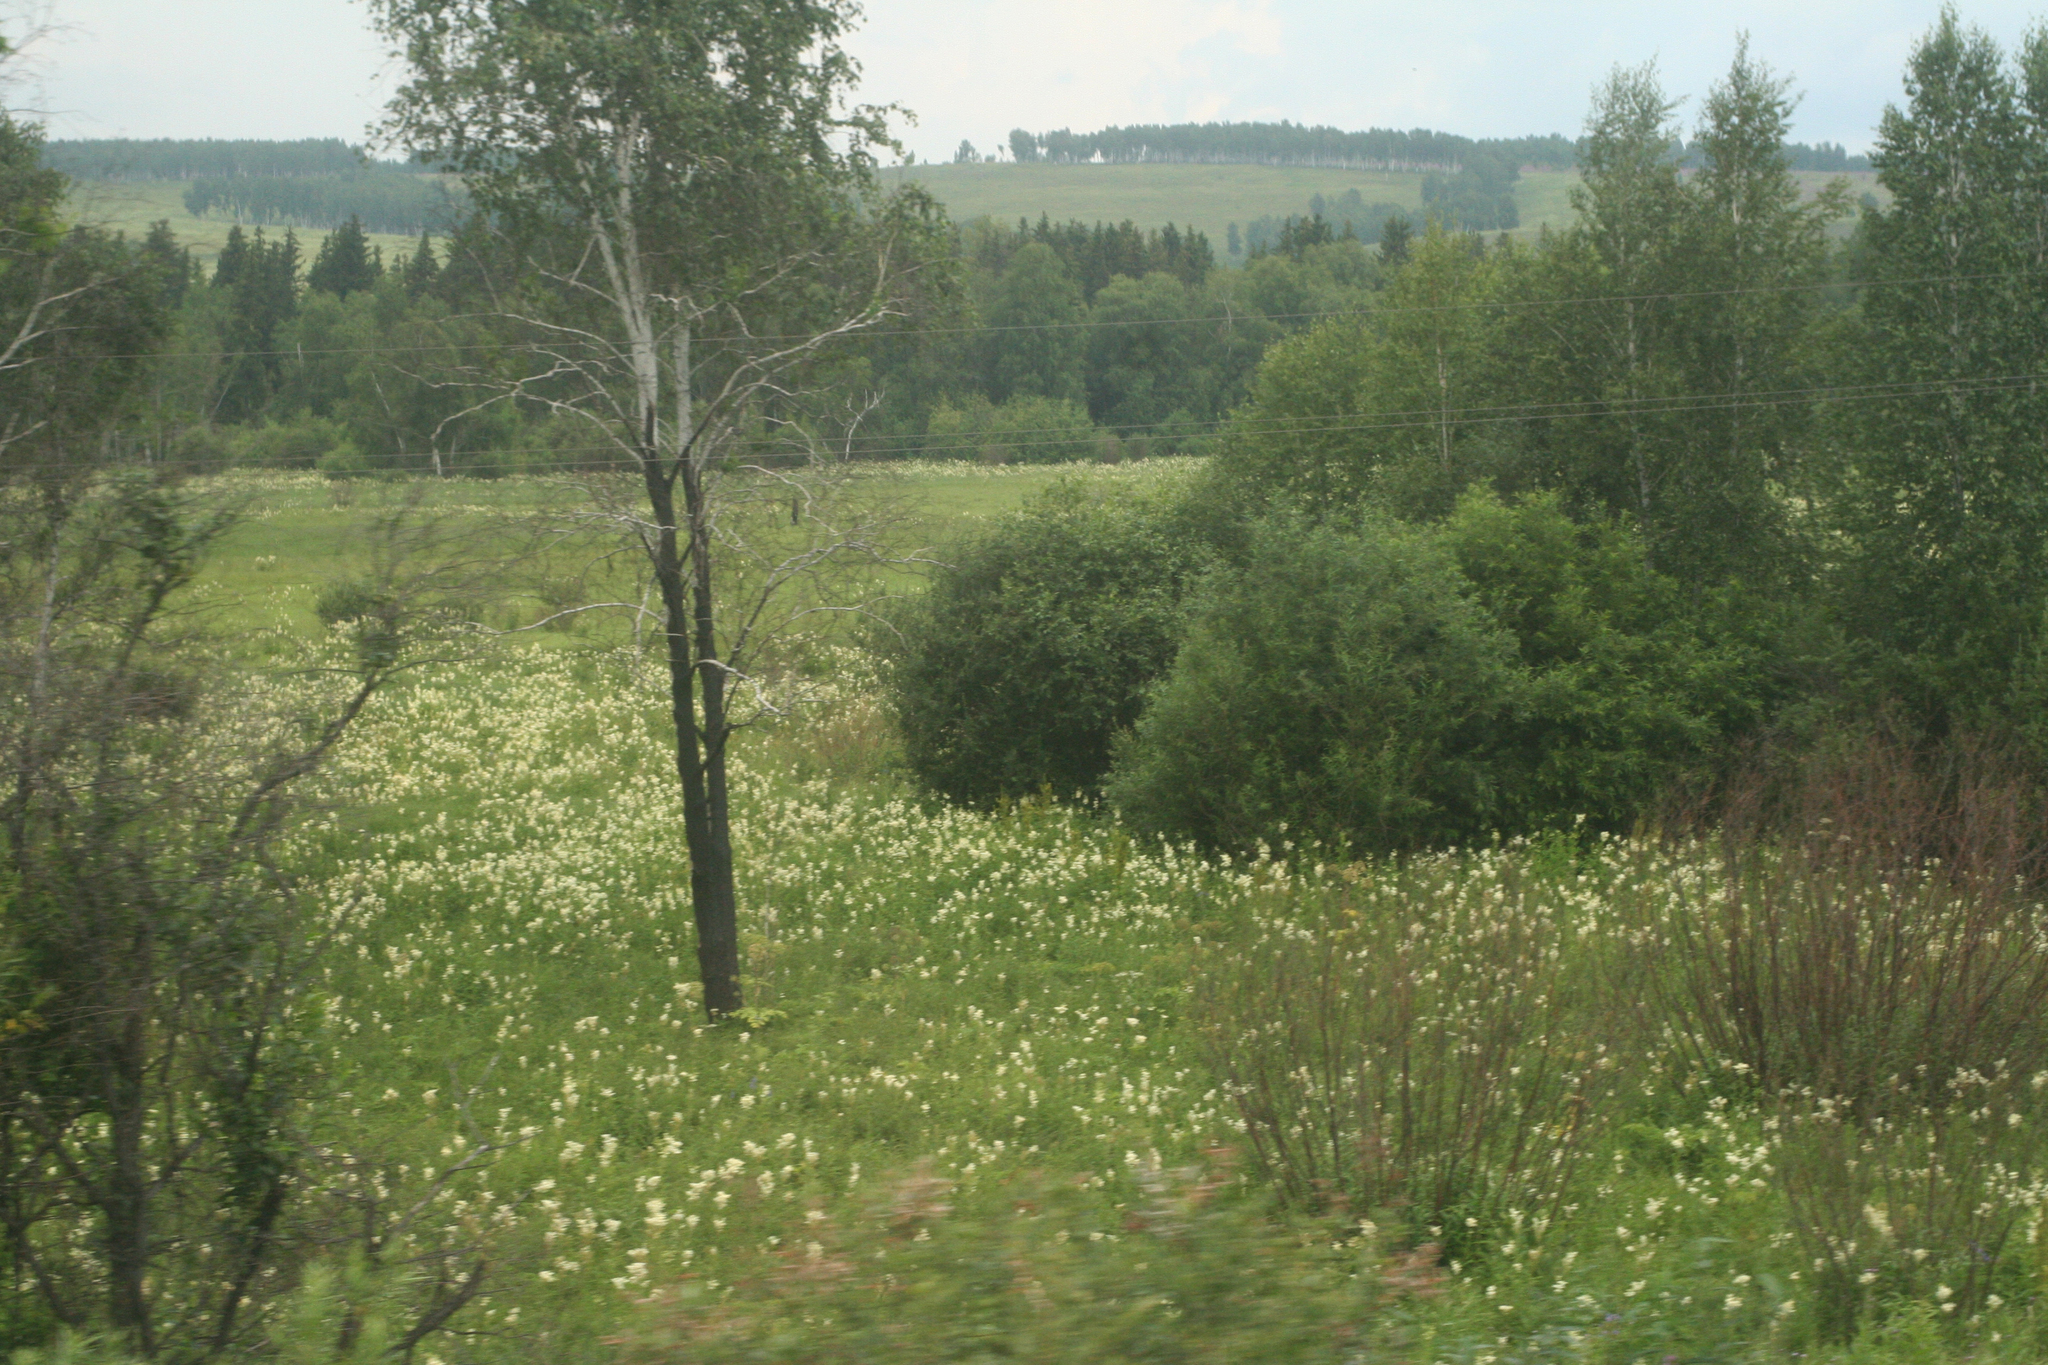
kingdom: Plantae
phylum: Tracheophyta
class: Magnoliopsida
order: Rosales
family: Rosaceae
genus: Filipendula
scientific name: Filipendula ulmaria
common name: Meadowsweet
